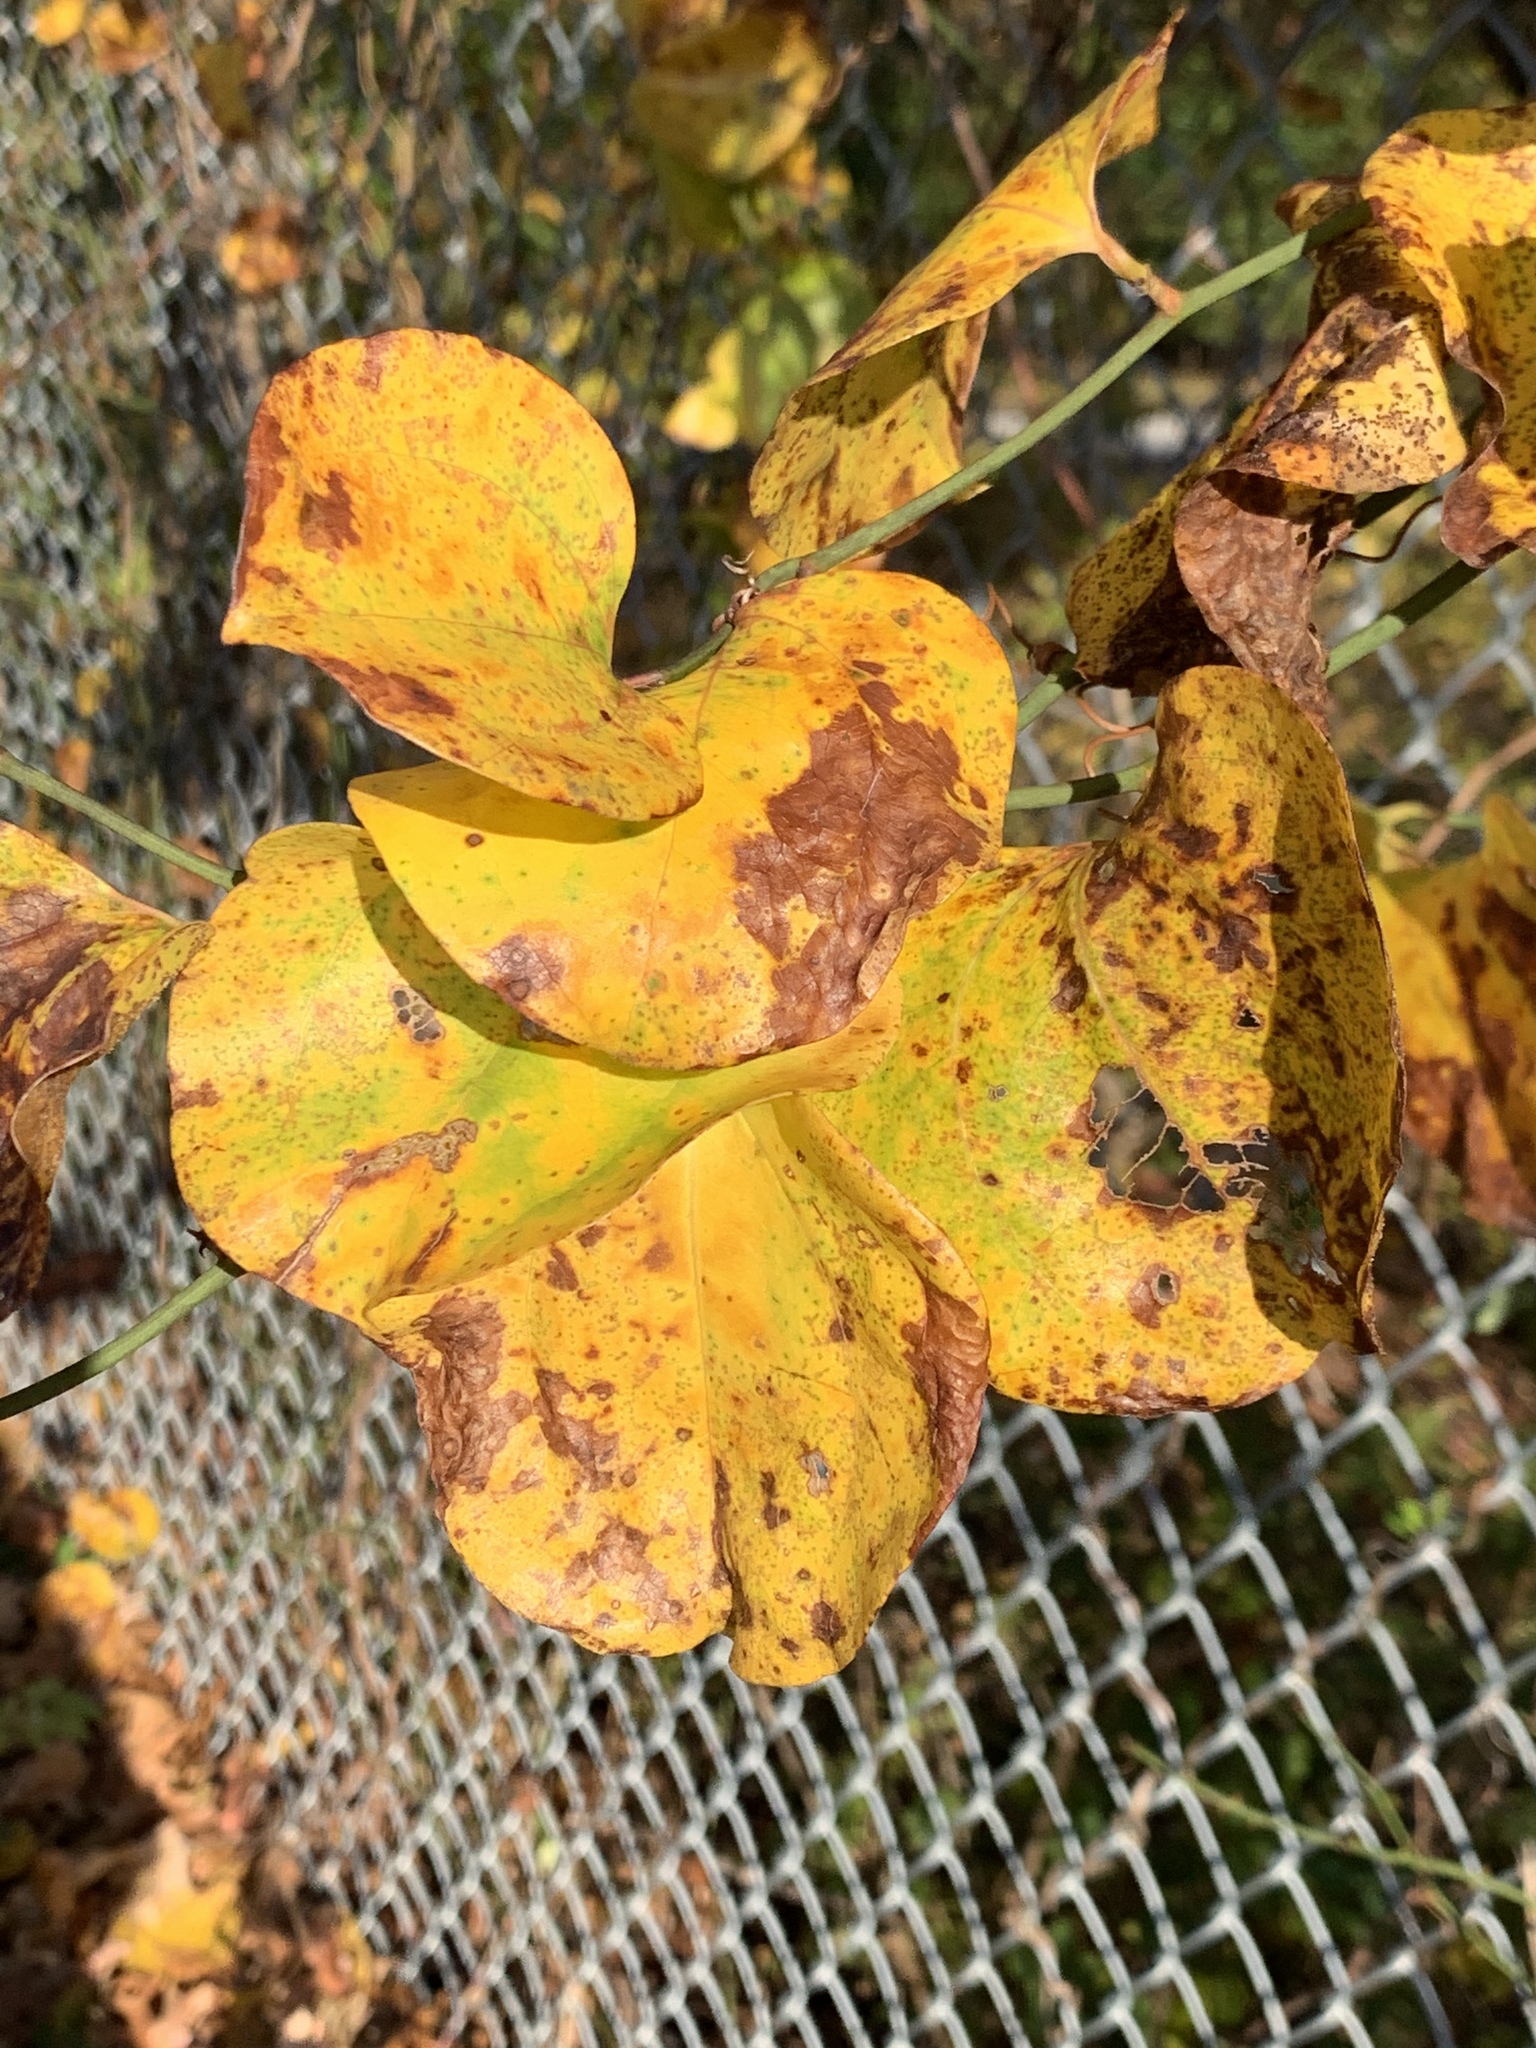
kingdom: Plantae
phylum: Tracheophyta
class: Liliopsida
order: Liliales
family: Smilacaceae
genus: Smilax
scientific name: Smilax rotundifolia
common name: Bullbriar
